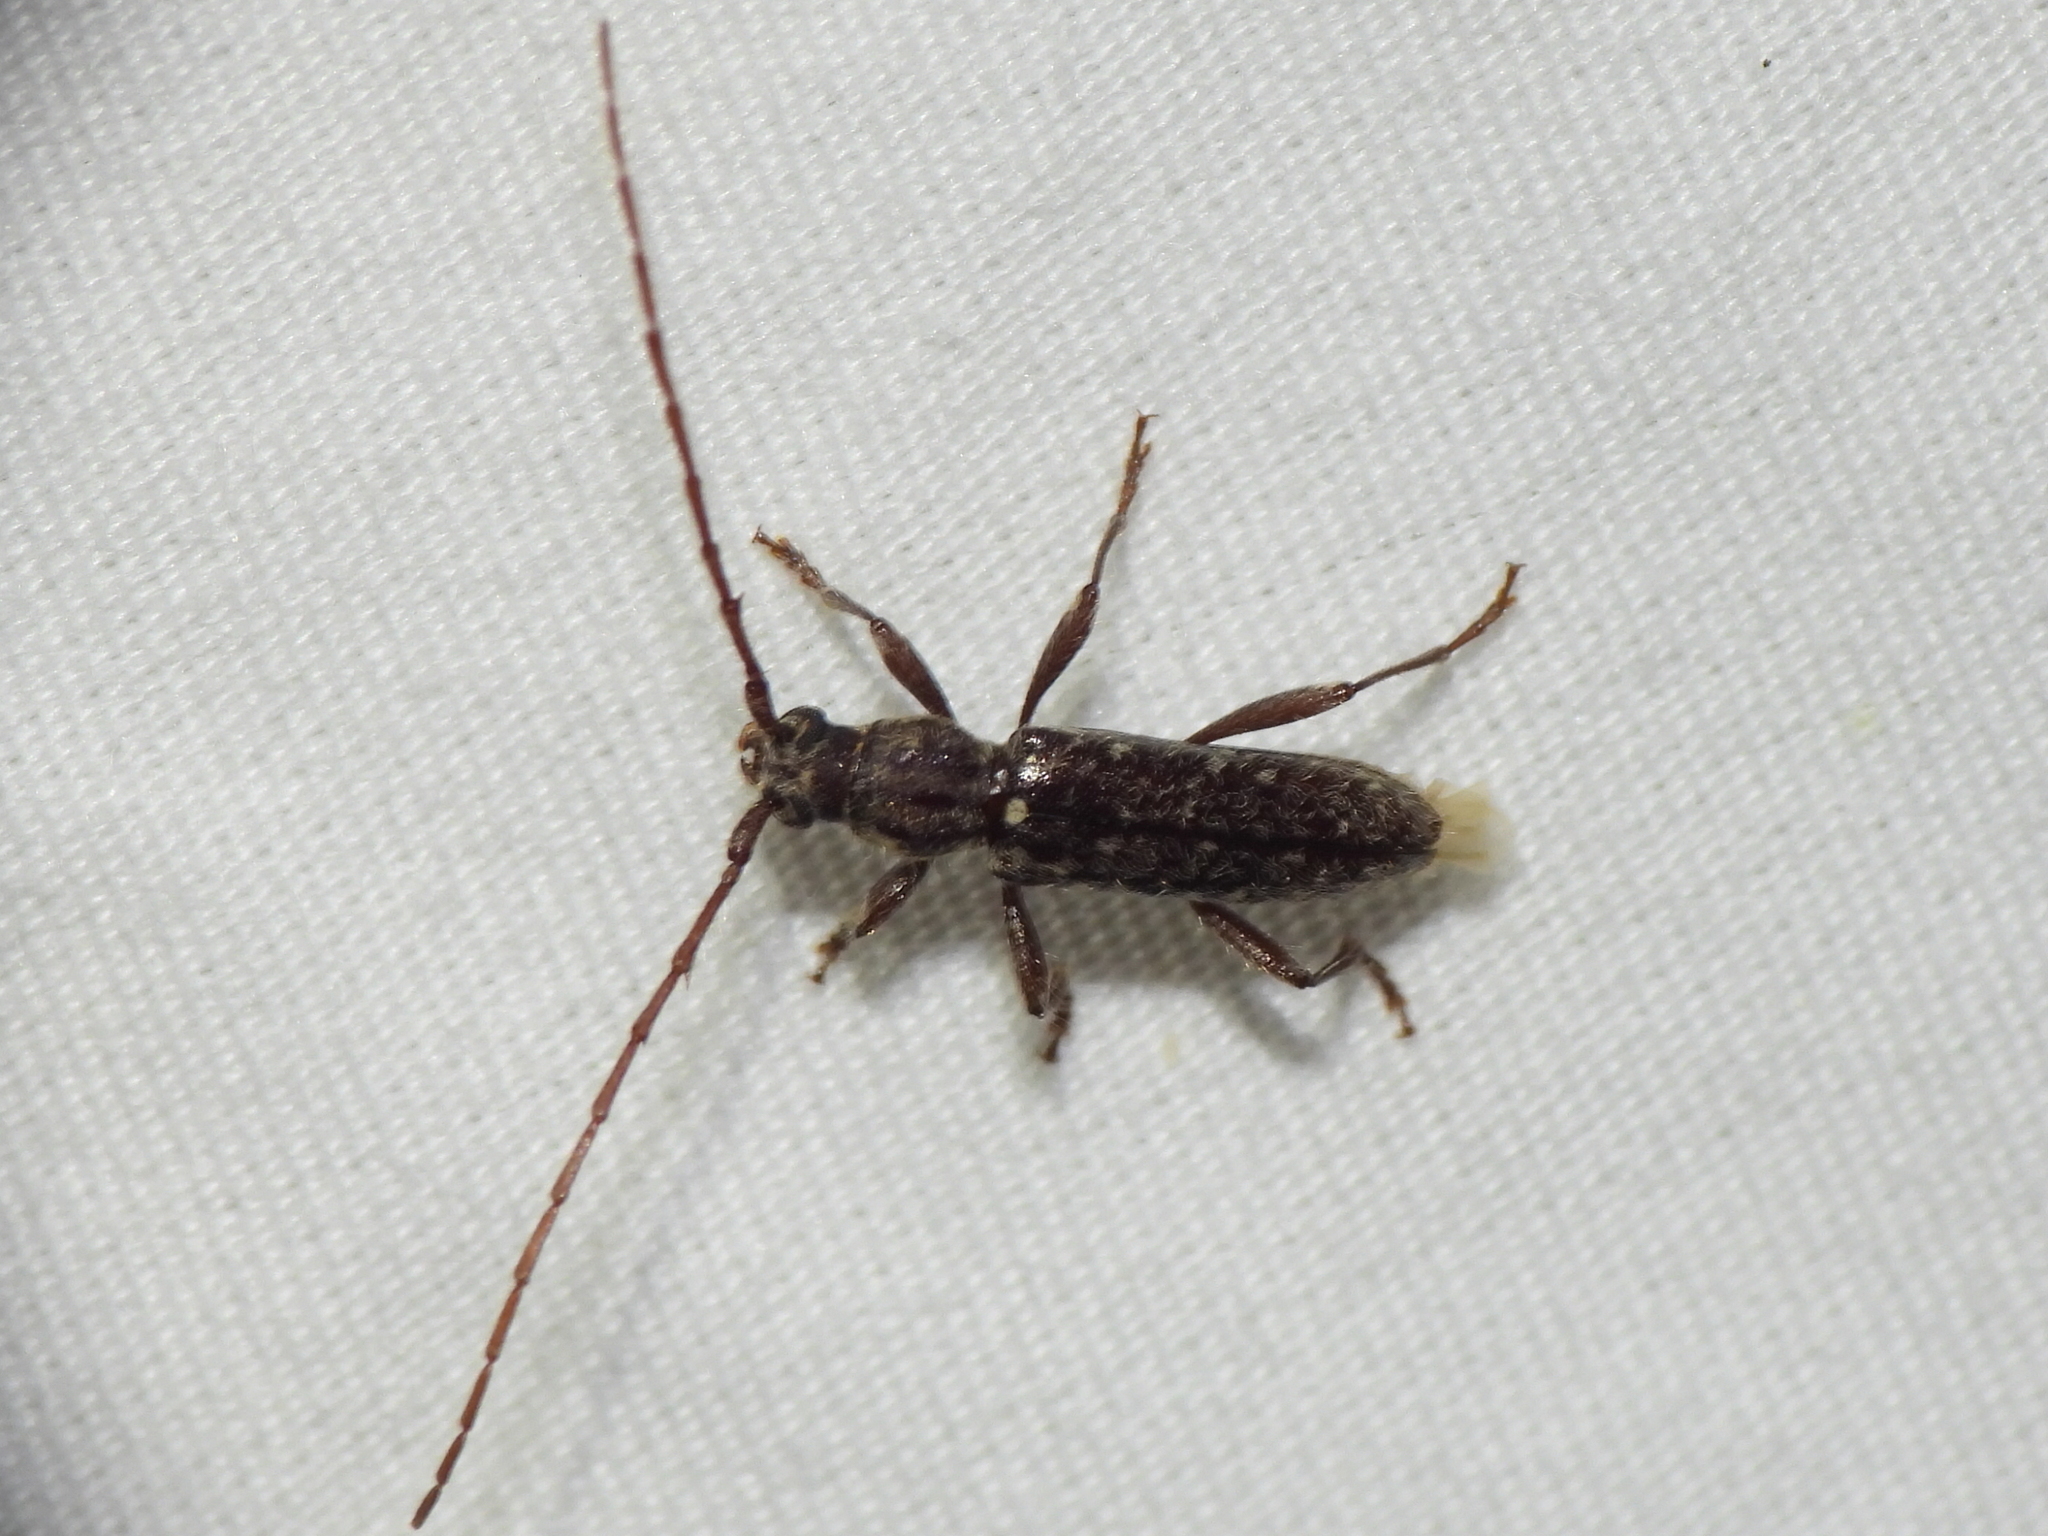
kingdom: Animalia
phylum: Arthropoda
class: Insecta
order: Coleoptera
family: Cerambycidae
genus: Anelaphus
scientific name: Anelaphus pumilus
